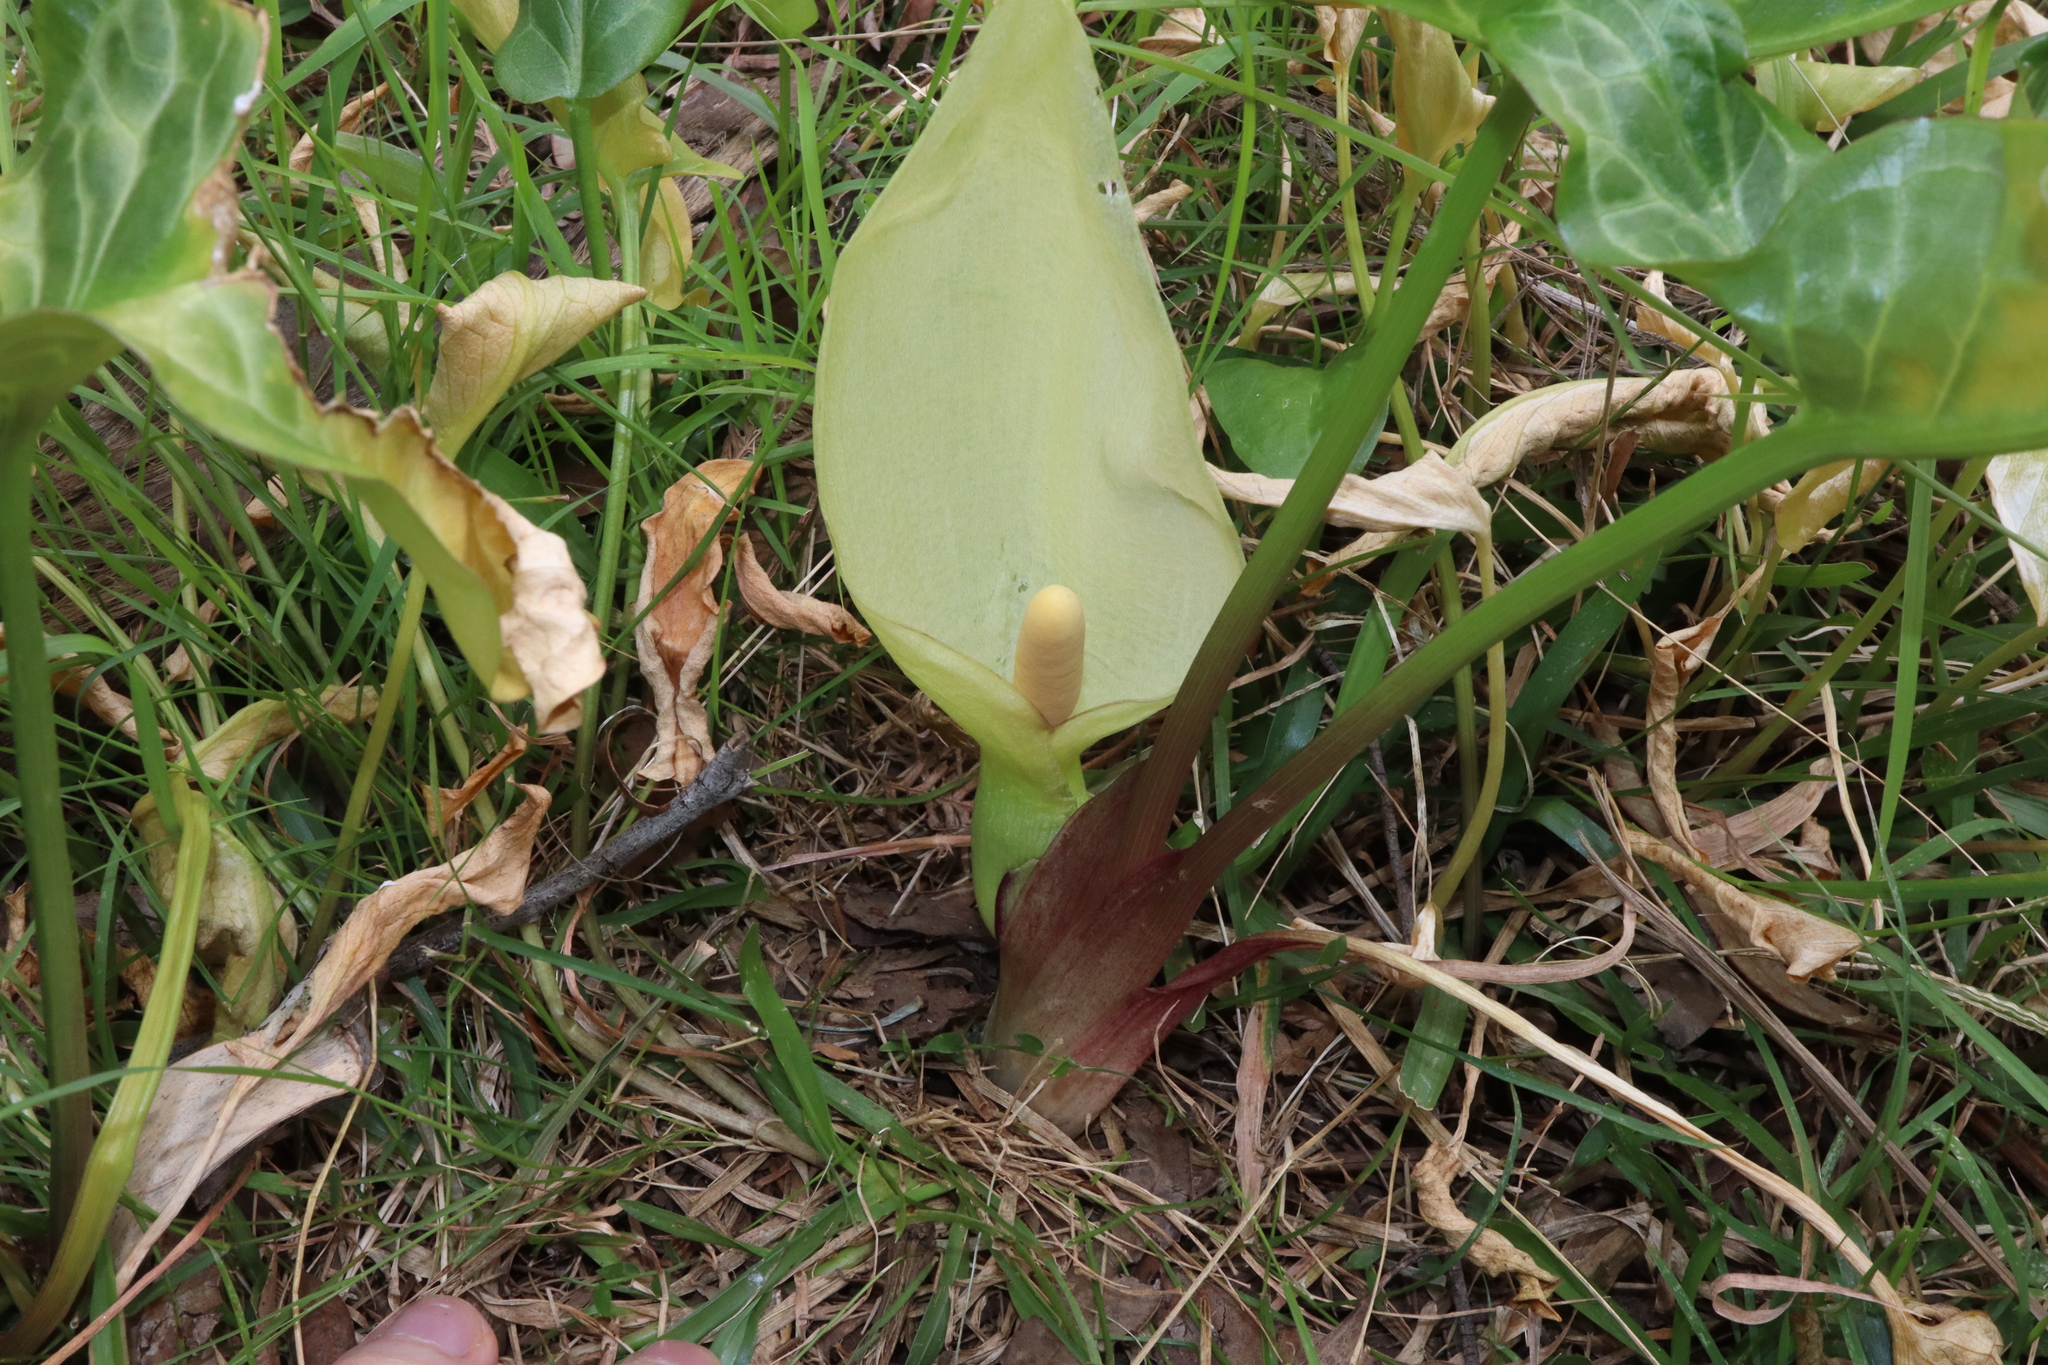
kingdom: Plantae
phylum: Tracheophyta
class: Liliopsida
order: Alismatales
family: Araceae
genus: Arum
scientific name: Arum italicum
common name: Italian lords-and-ladies
